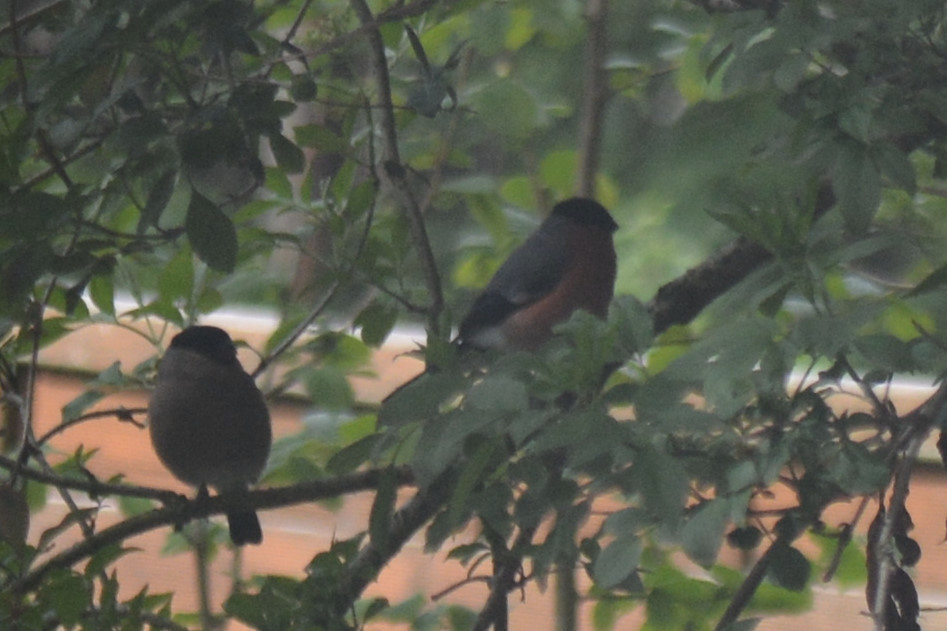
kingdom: Animalia
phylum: Chordata
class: Aves
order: Passeriformes
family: Fringillidae
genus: Pyrrhula
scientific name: Pyrrhula pyrrhula
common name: Eurasian bullfinch
